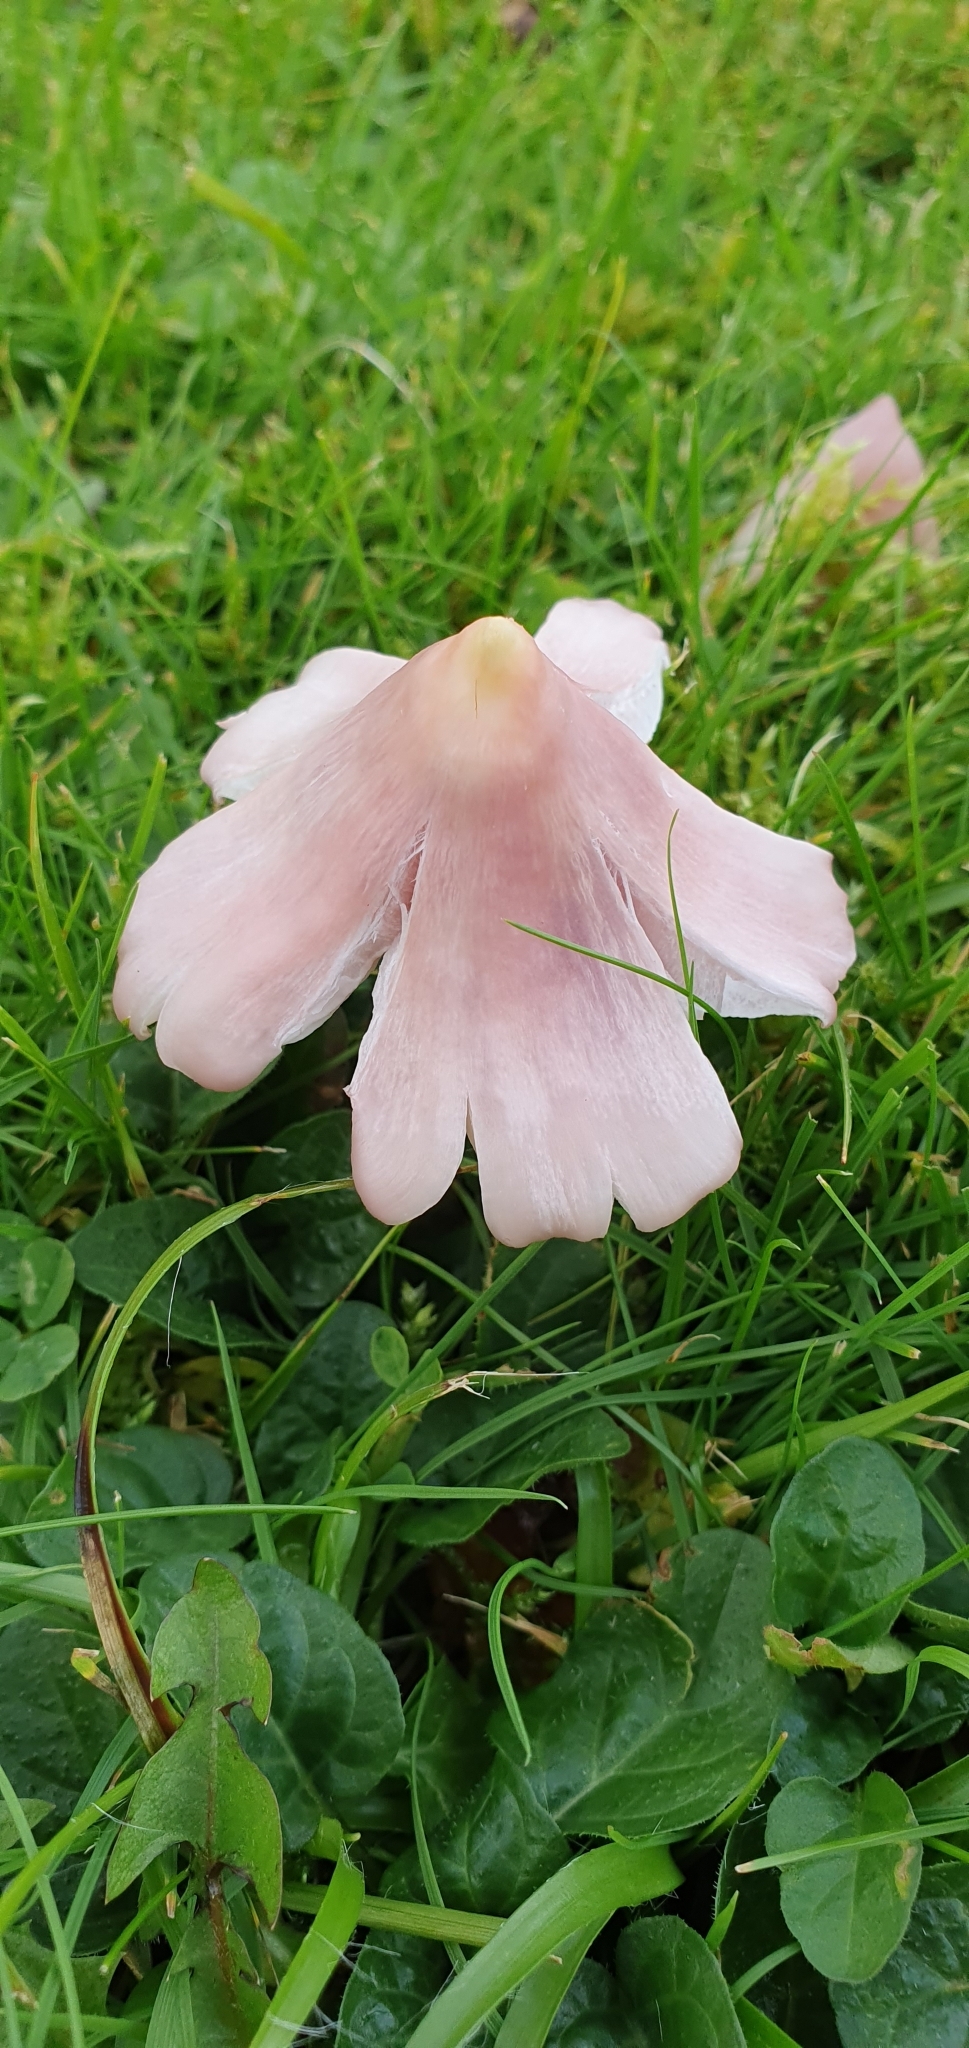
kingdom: Fungi
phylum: Basidiomycota
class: Agaricomycetes
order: Agaricales
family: Hygrophoraceae
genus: Porpolomopsis
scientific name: Porpolomopsis calyptriformis
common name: Pink waxcap
